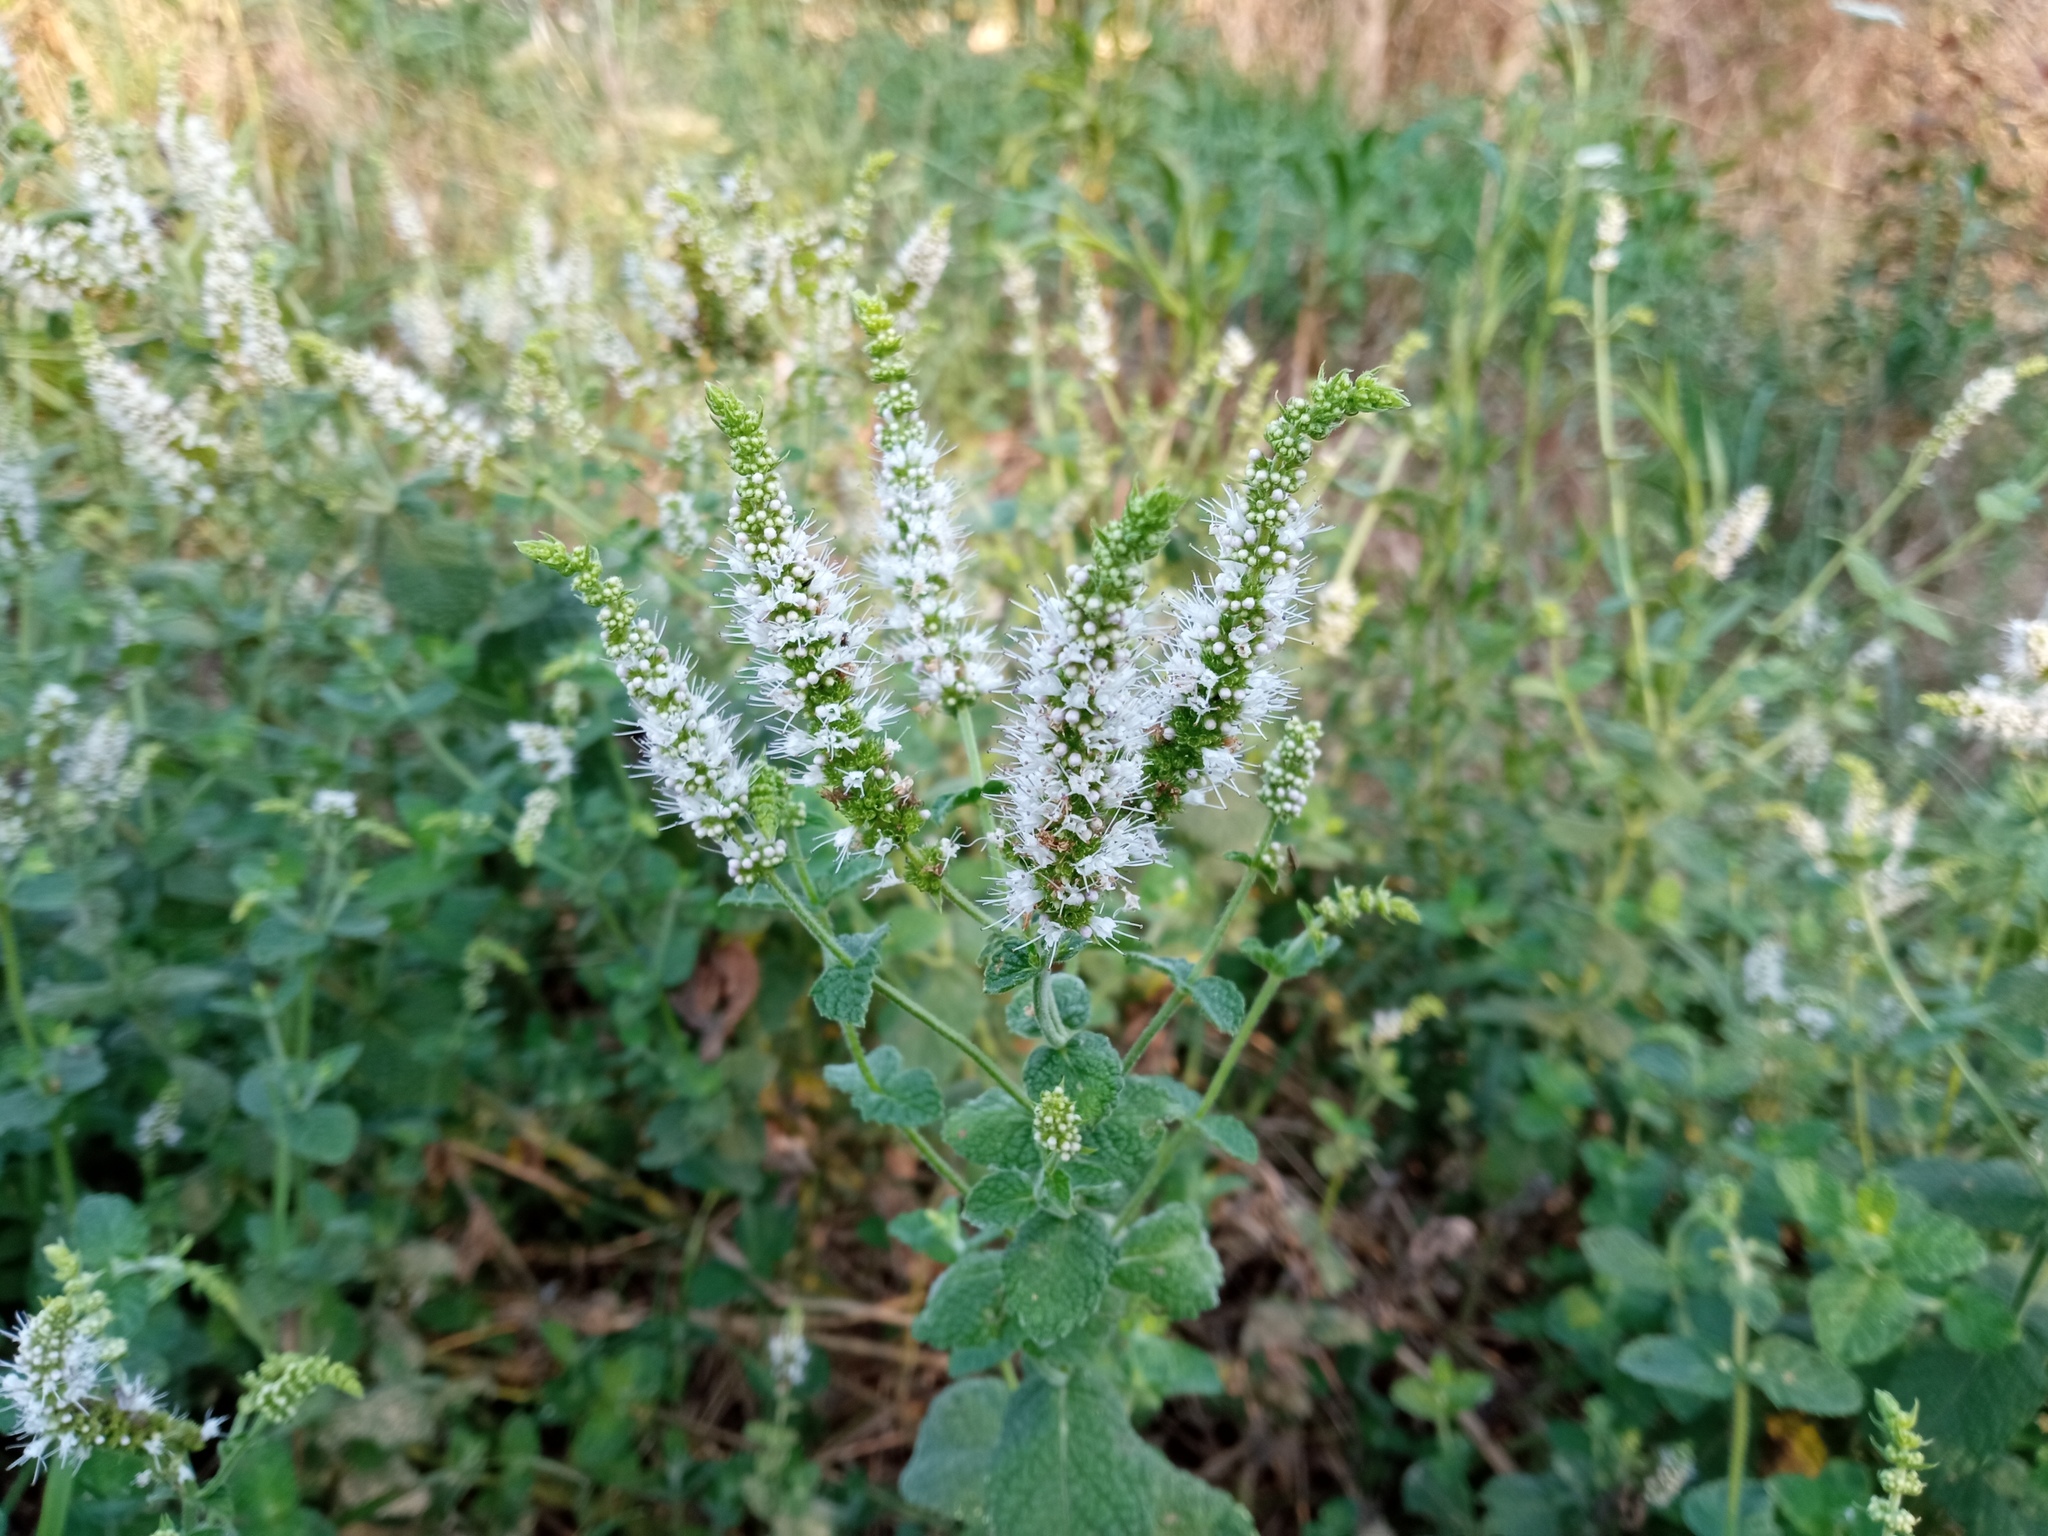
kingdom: Plantae
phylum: Tracheophyta
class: Magnoliopsida
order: Lamiales
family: Lamiaceae
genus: Mentha
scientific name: Mentha suaveolens
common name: Apple mint
